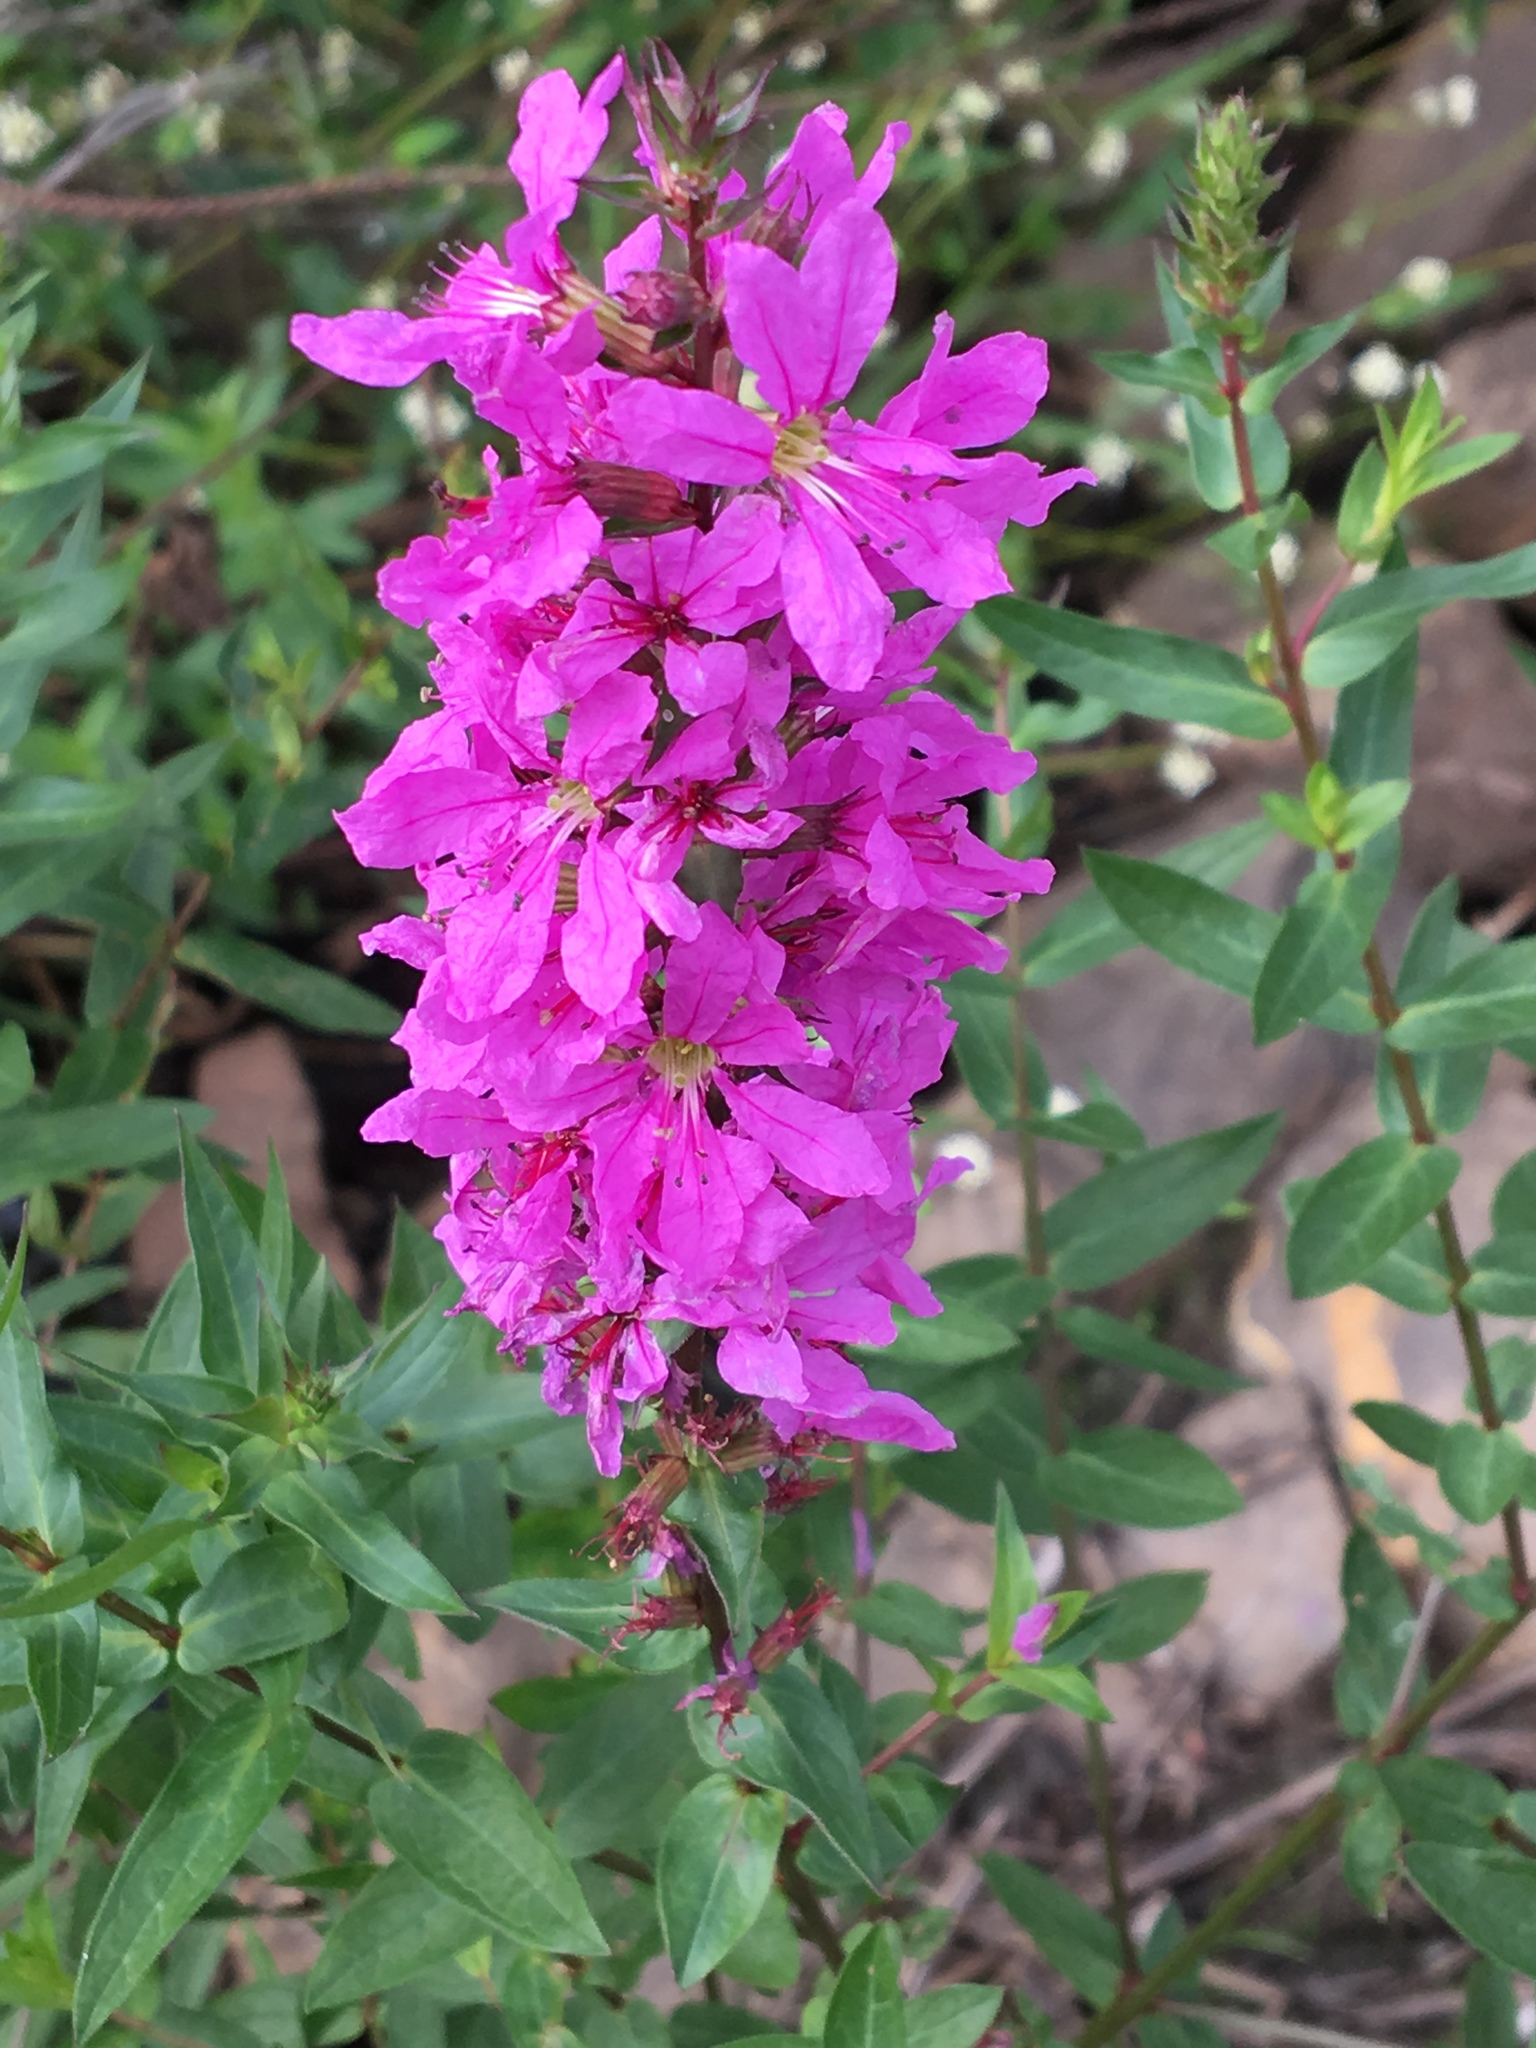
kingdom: Plantae
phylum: Tracheophyta
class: Magnoliopsida
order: Myrtales
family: Lythraceae
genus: Lythrum
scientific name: Lythrum salicaria
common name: Purple loosestrife
